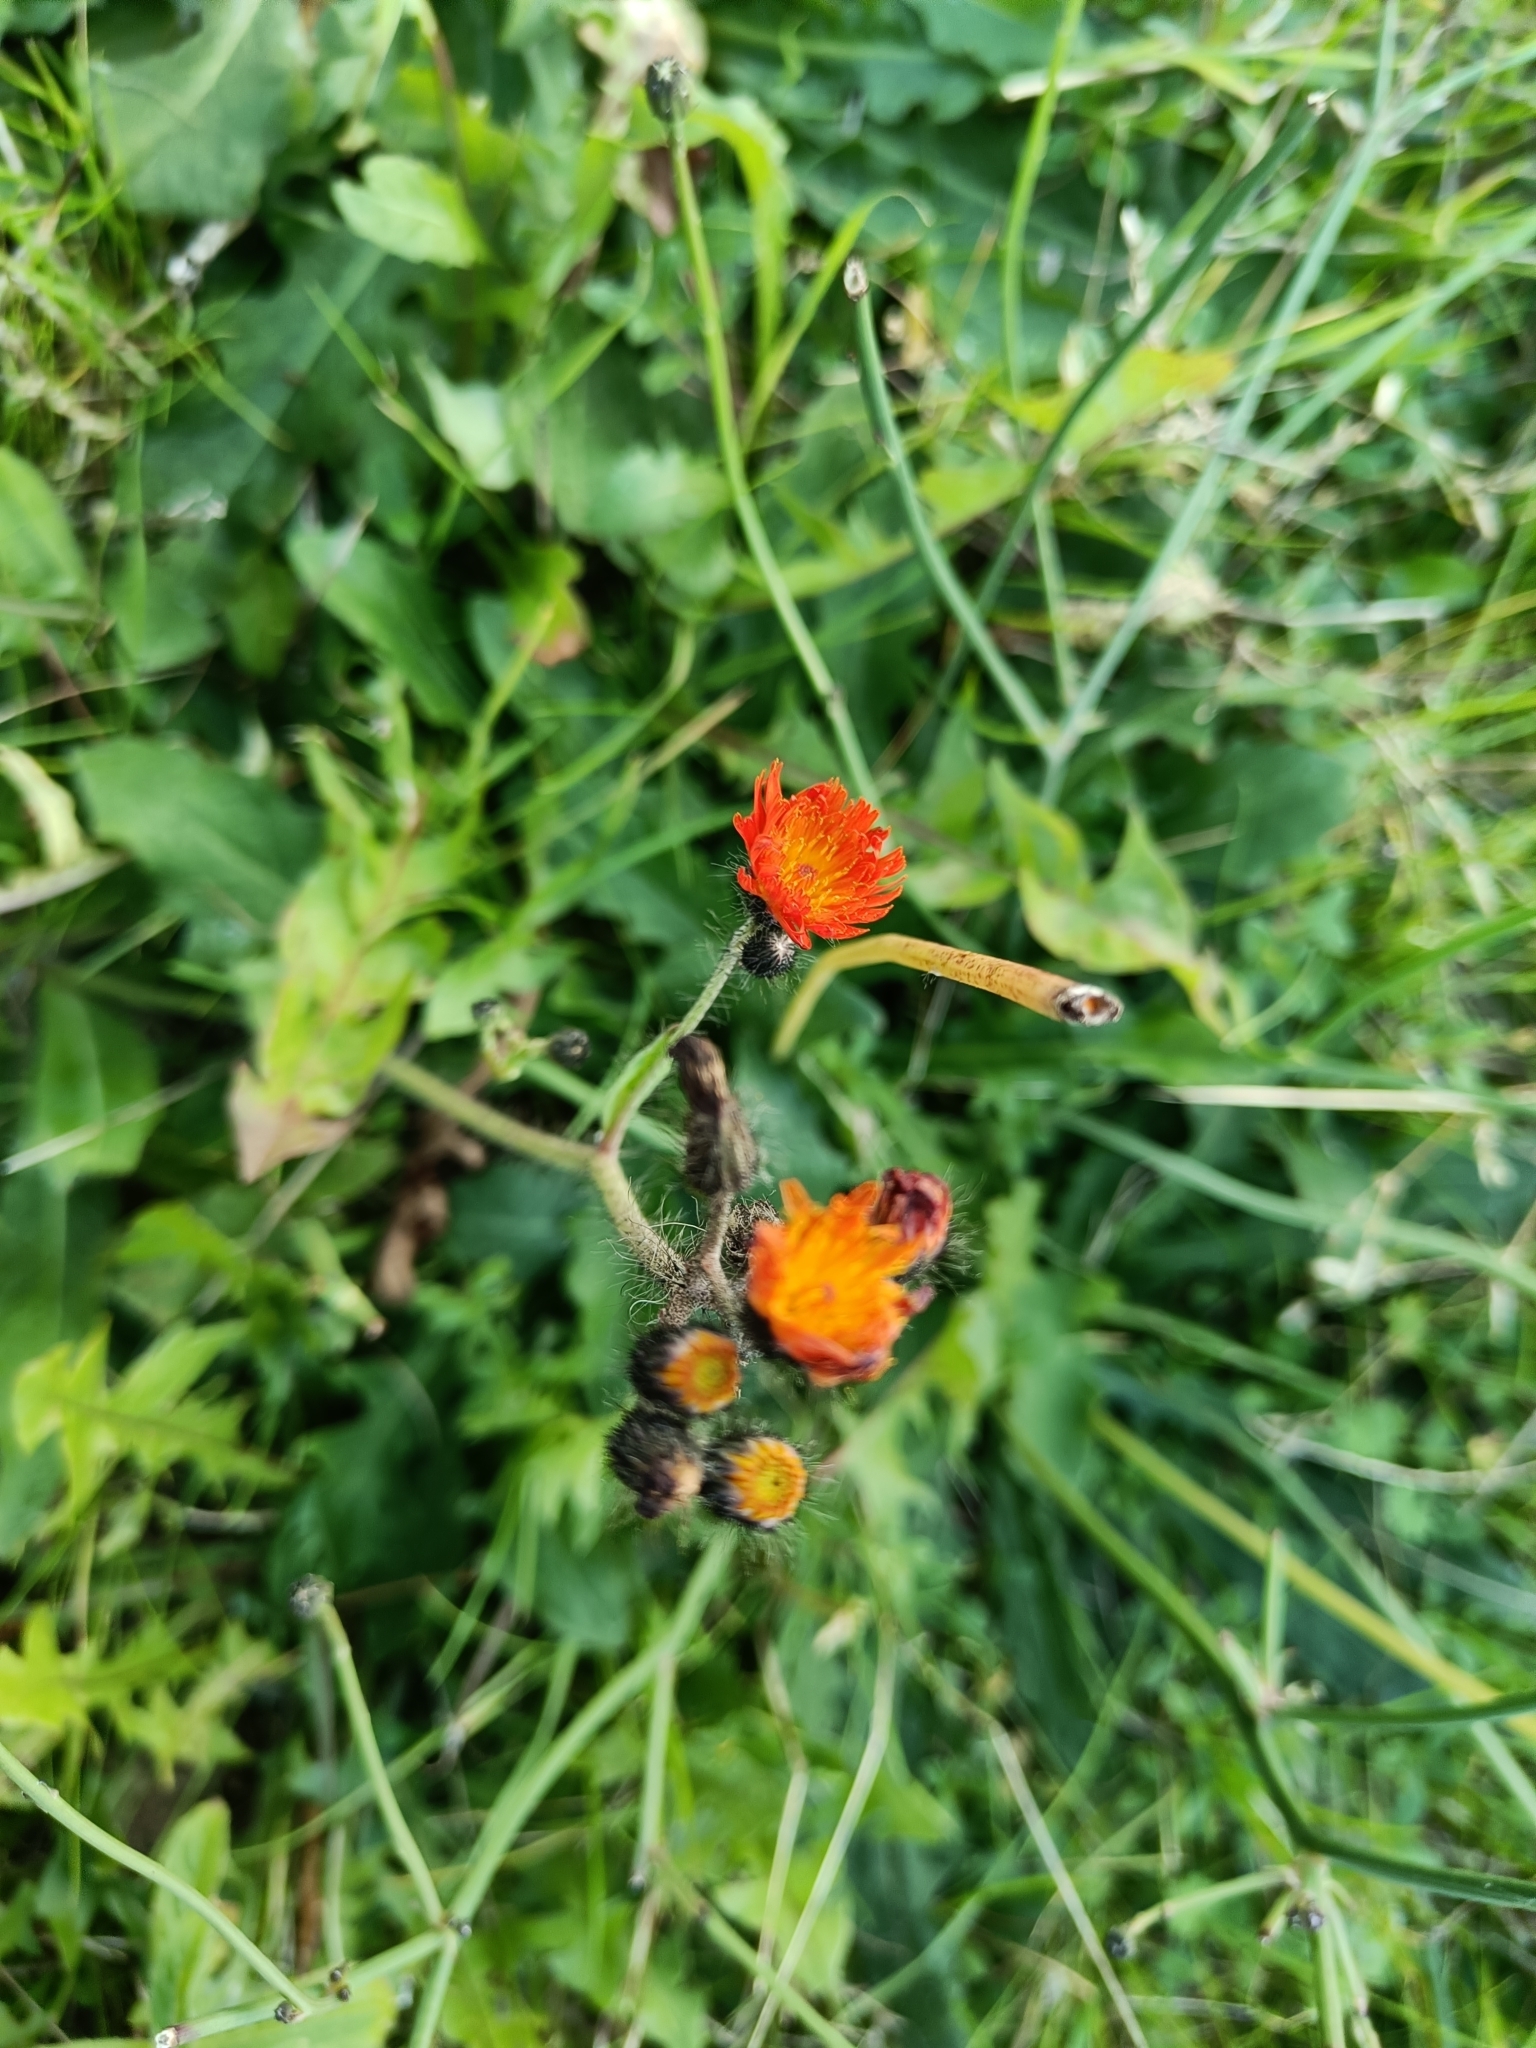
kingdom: Plantae
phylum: Tracheophyta
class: Magnoliopsida
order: Asterales
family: Asteraceae
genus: Pilosella
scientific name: Pilosella aurantiaca
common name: Fox-and-cubs
